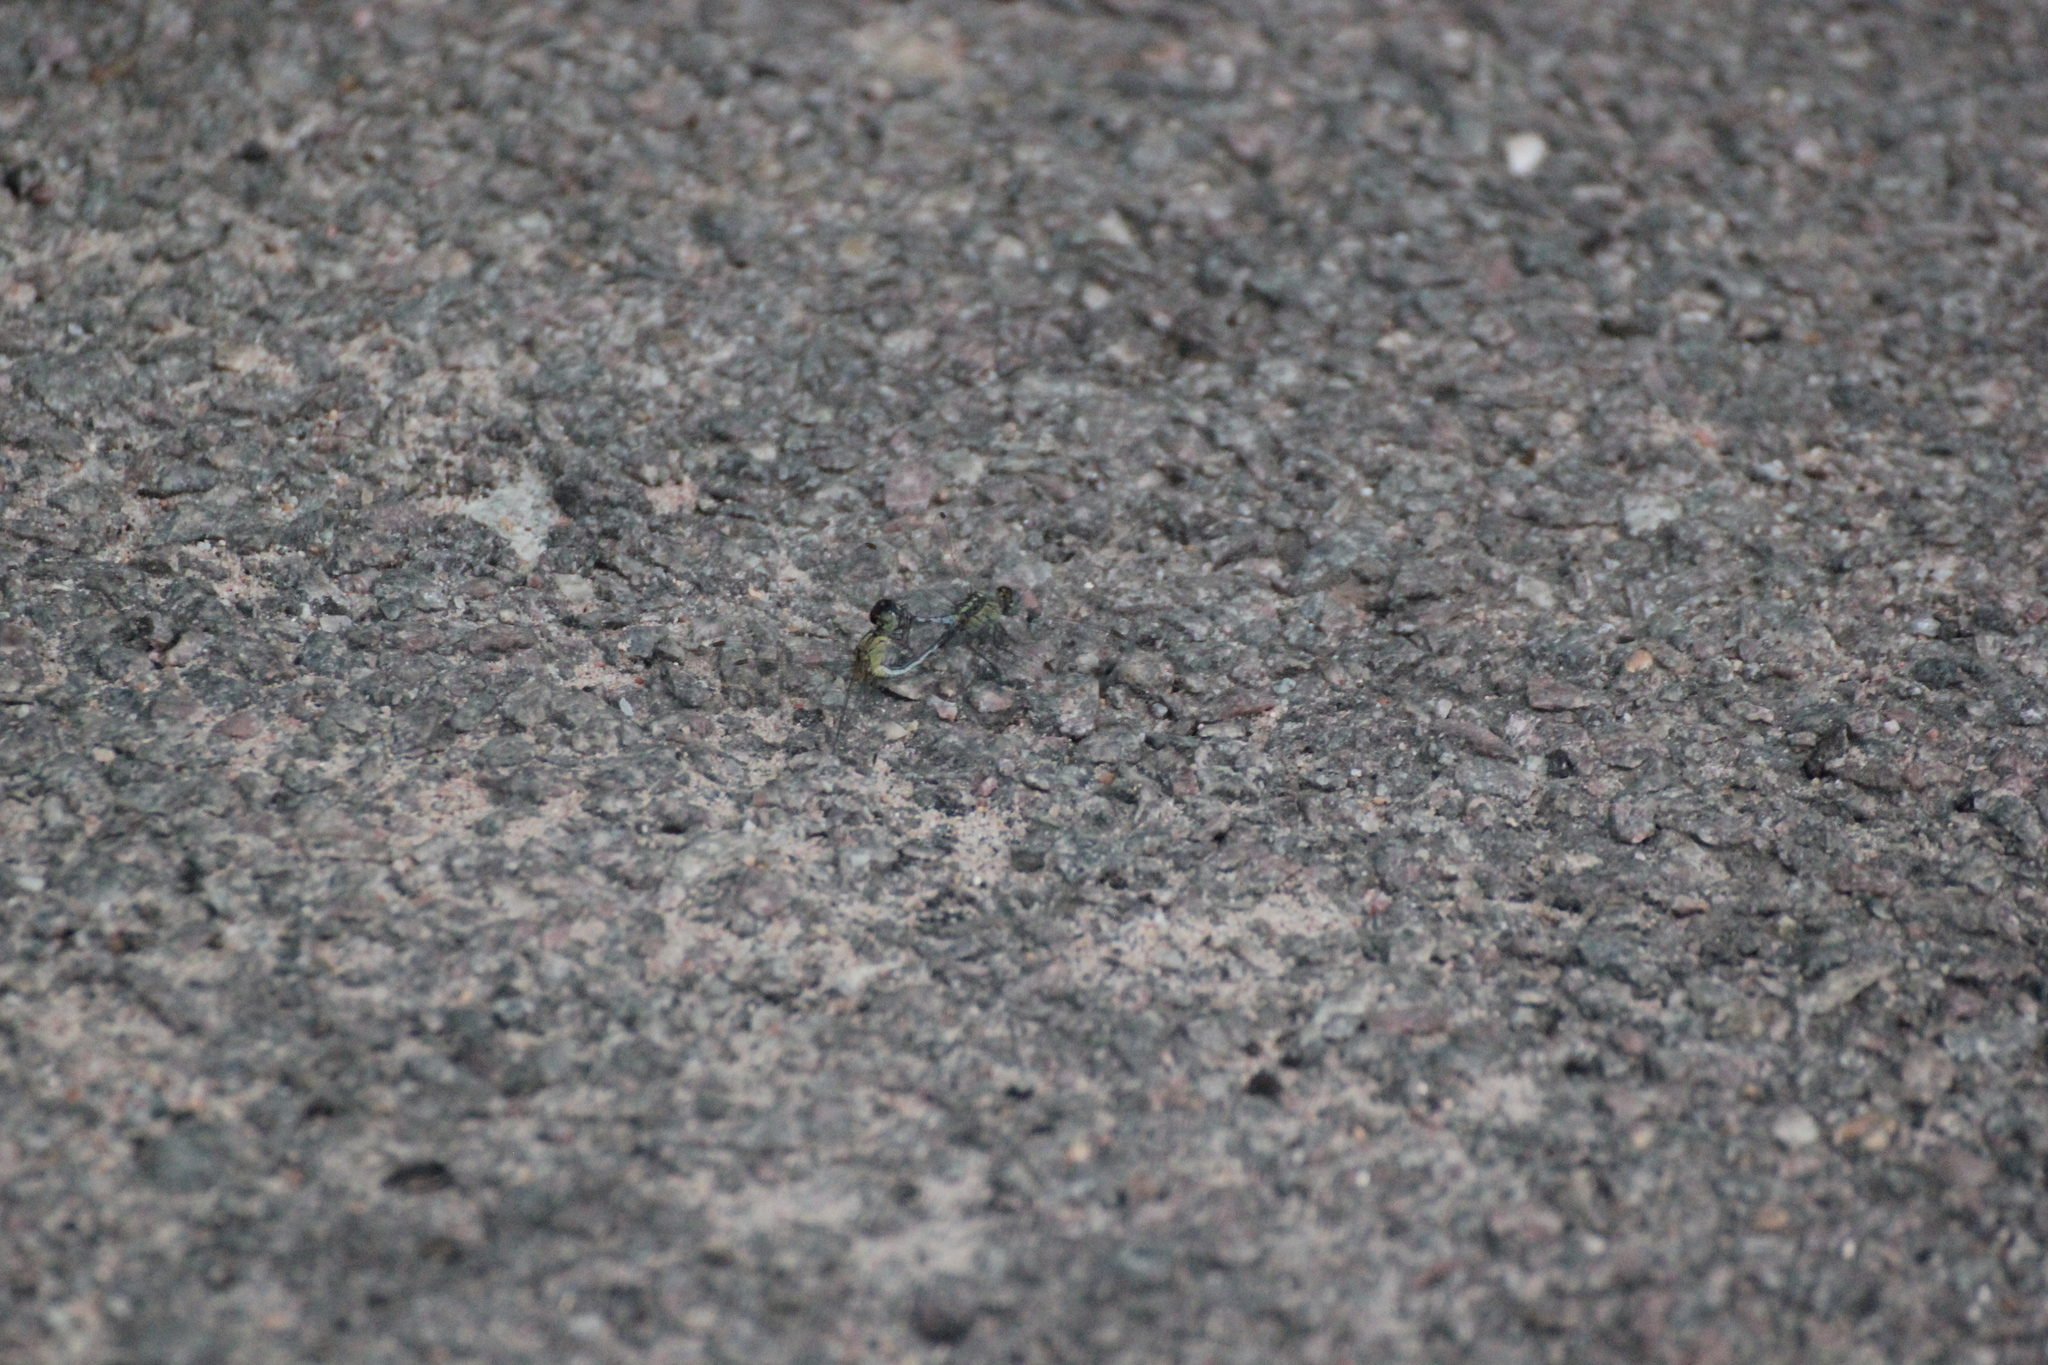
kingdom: Animalia
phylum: Arthropoda
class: Insecta
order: Odonata
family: Libellulidae
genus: Diplacodes
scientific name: Diplacodes trivialis
